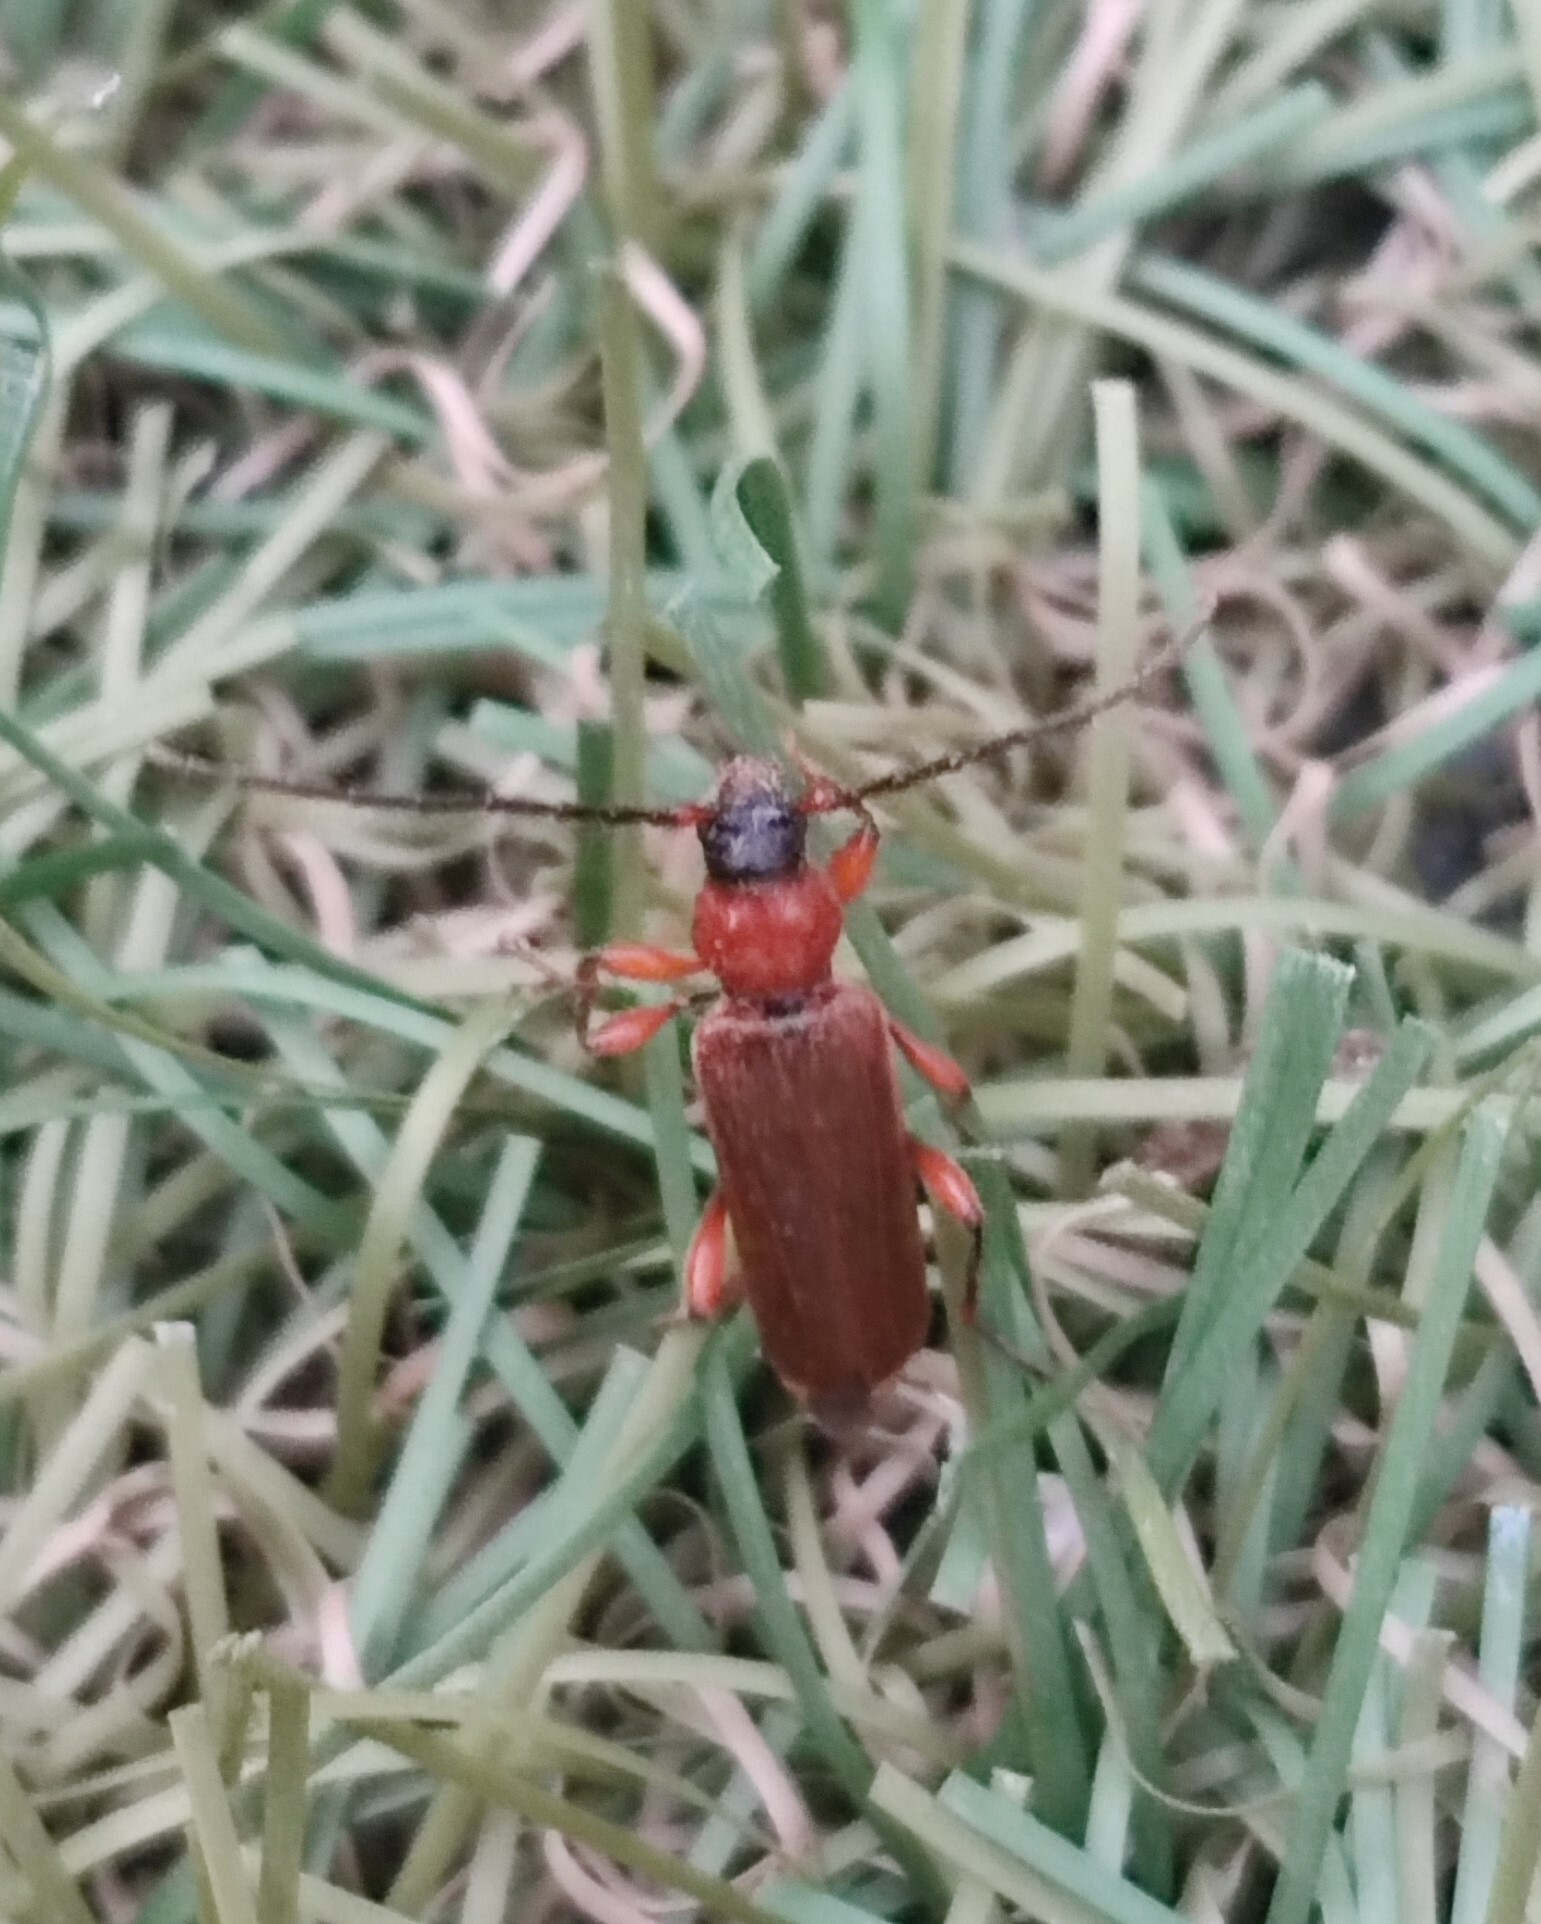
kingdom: Animalia
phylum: Arthropoda
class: Insecta
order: Coleoptera
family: Cerambycidae
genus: Phymatodes
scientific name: Phymatodes testaceus
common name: Long-horned beetle
